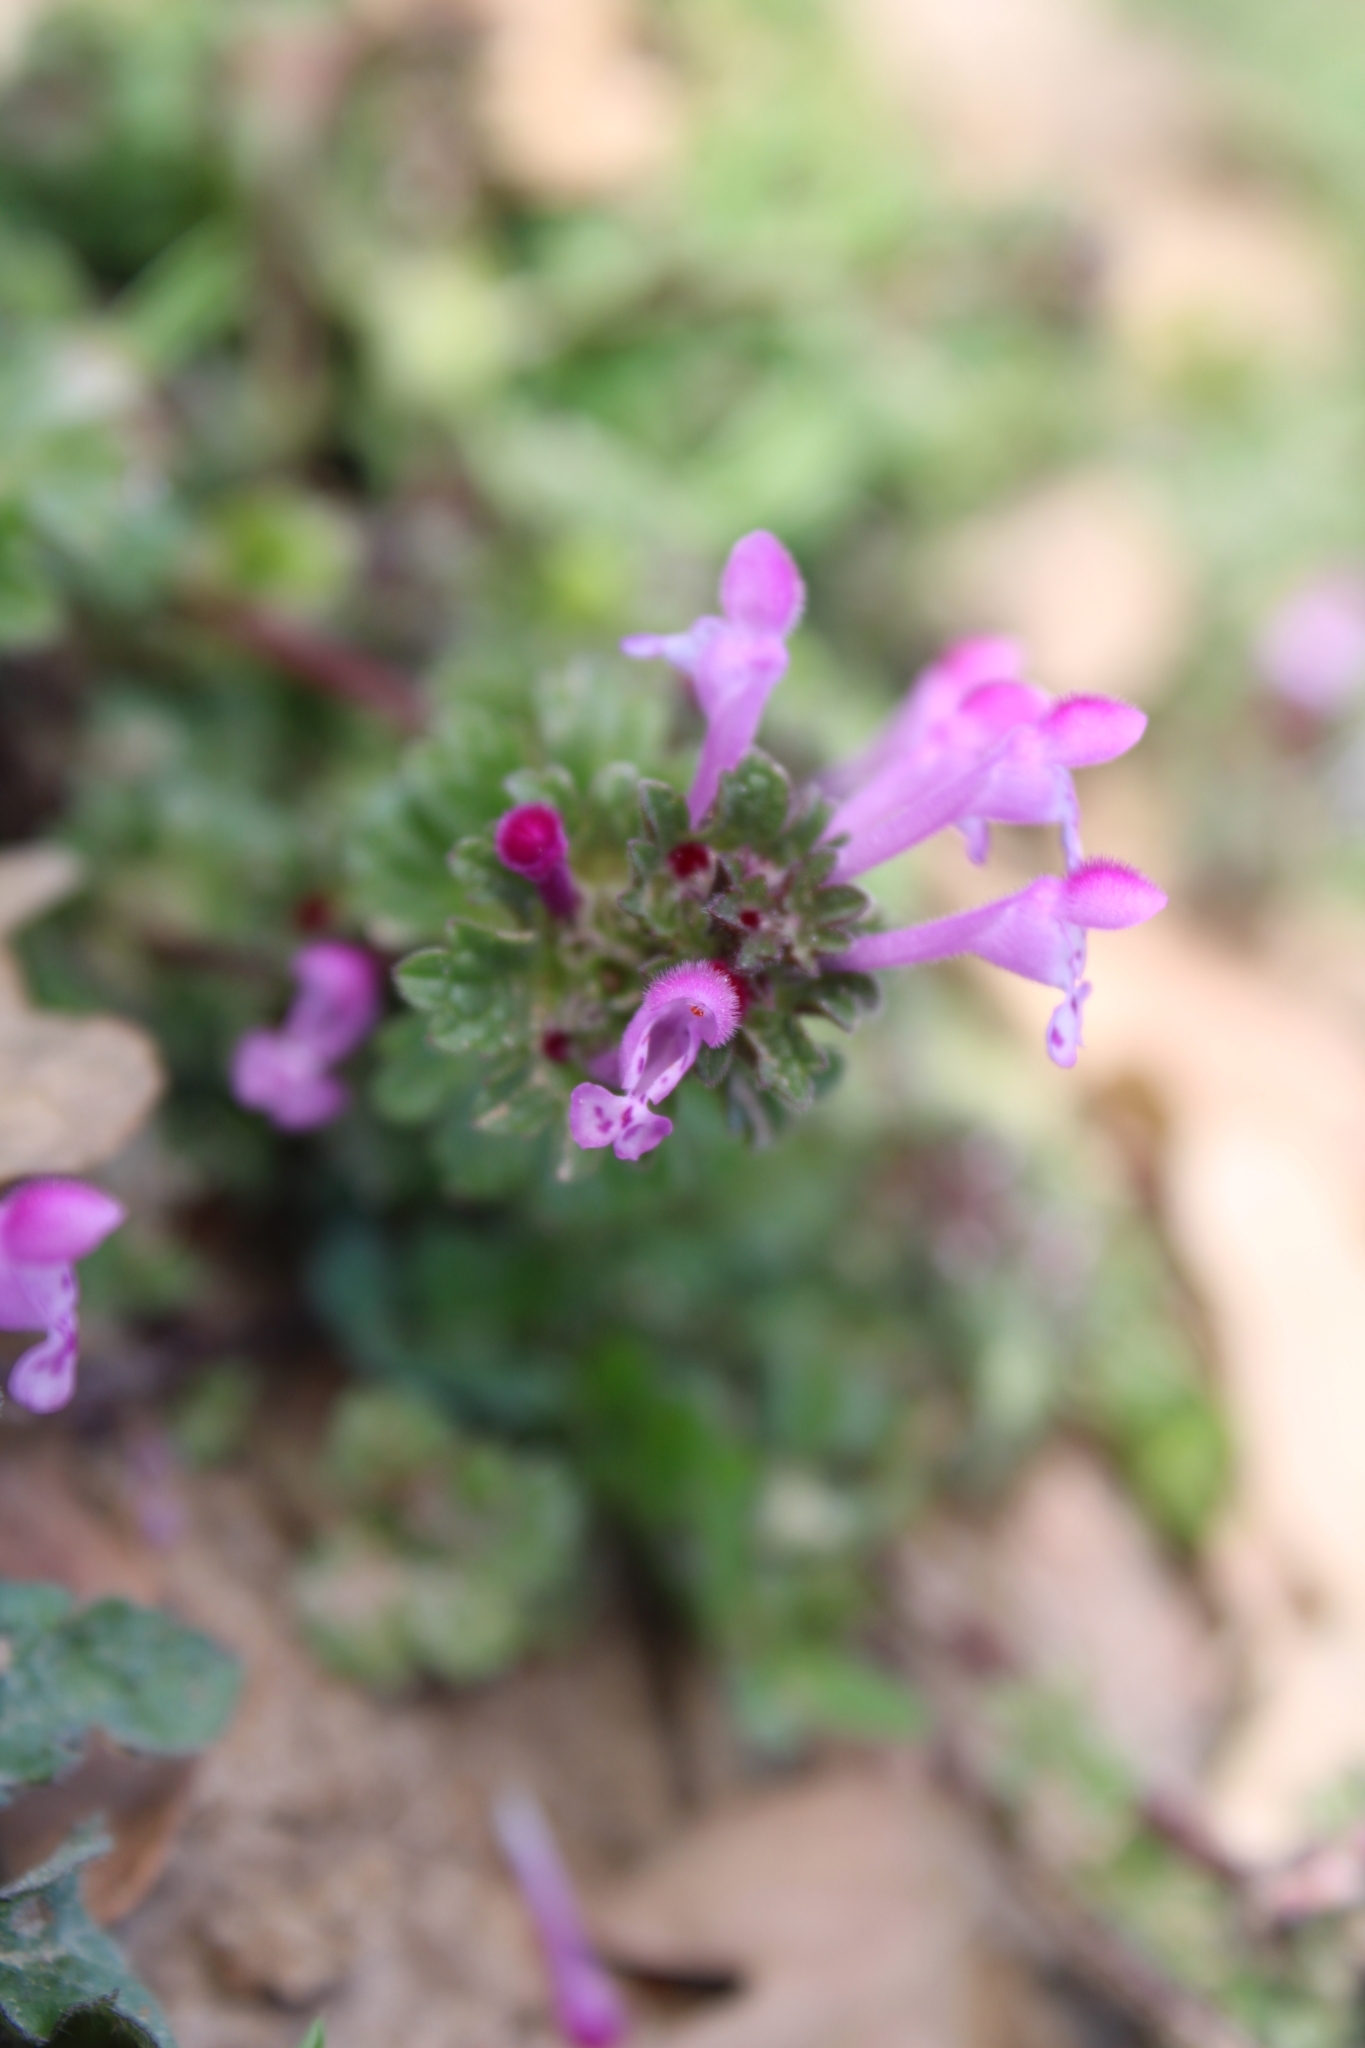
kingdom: Plantae
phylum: Tracheophyta
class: Magnoliopsida
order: Lamiales
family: Lamiaceae
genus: Lamium
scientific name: Lamium amplexicaule
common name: Henbit dead-nettle
